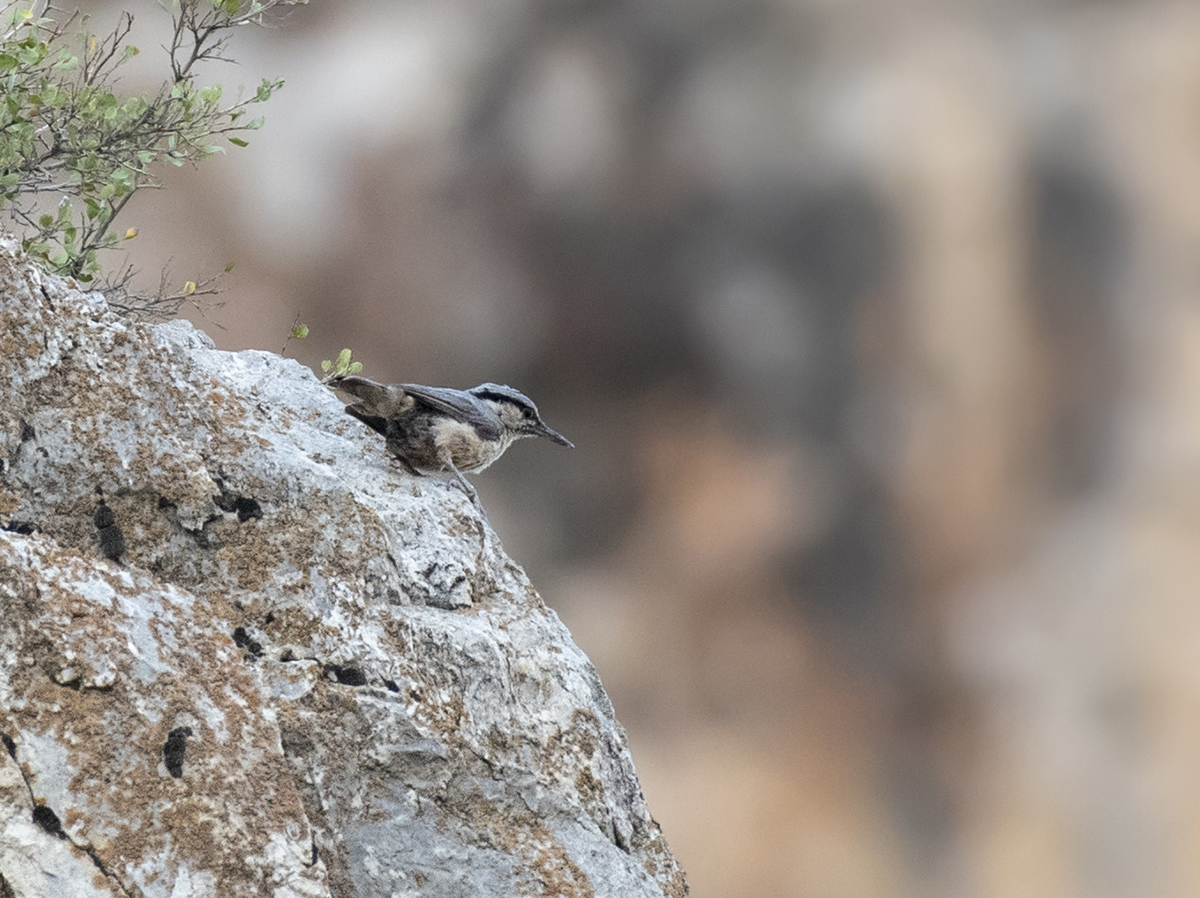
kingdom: Animalia
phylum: Chordata
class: Aves
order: Passeriformes
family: Sittidae
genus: Sitta
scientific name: Sitta tephronota
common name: Eastern rock nuthatch
